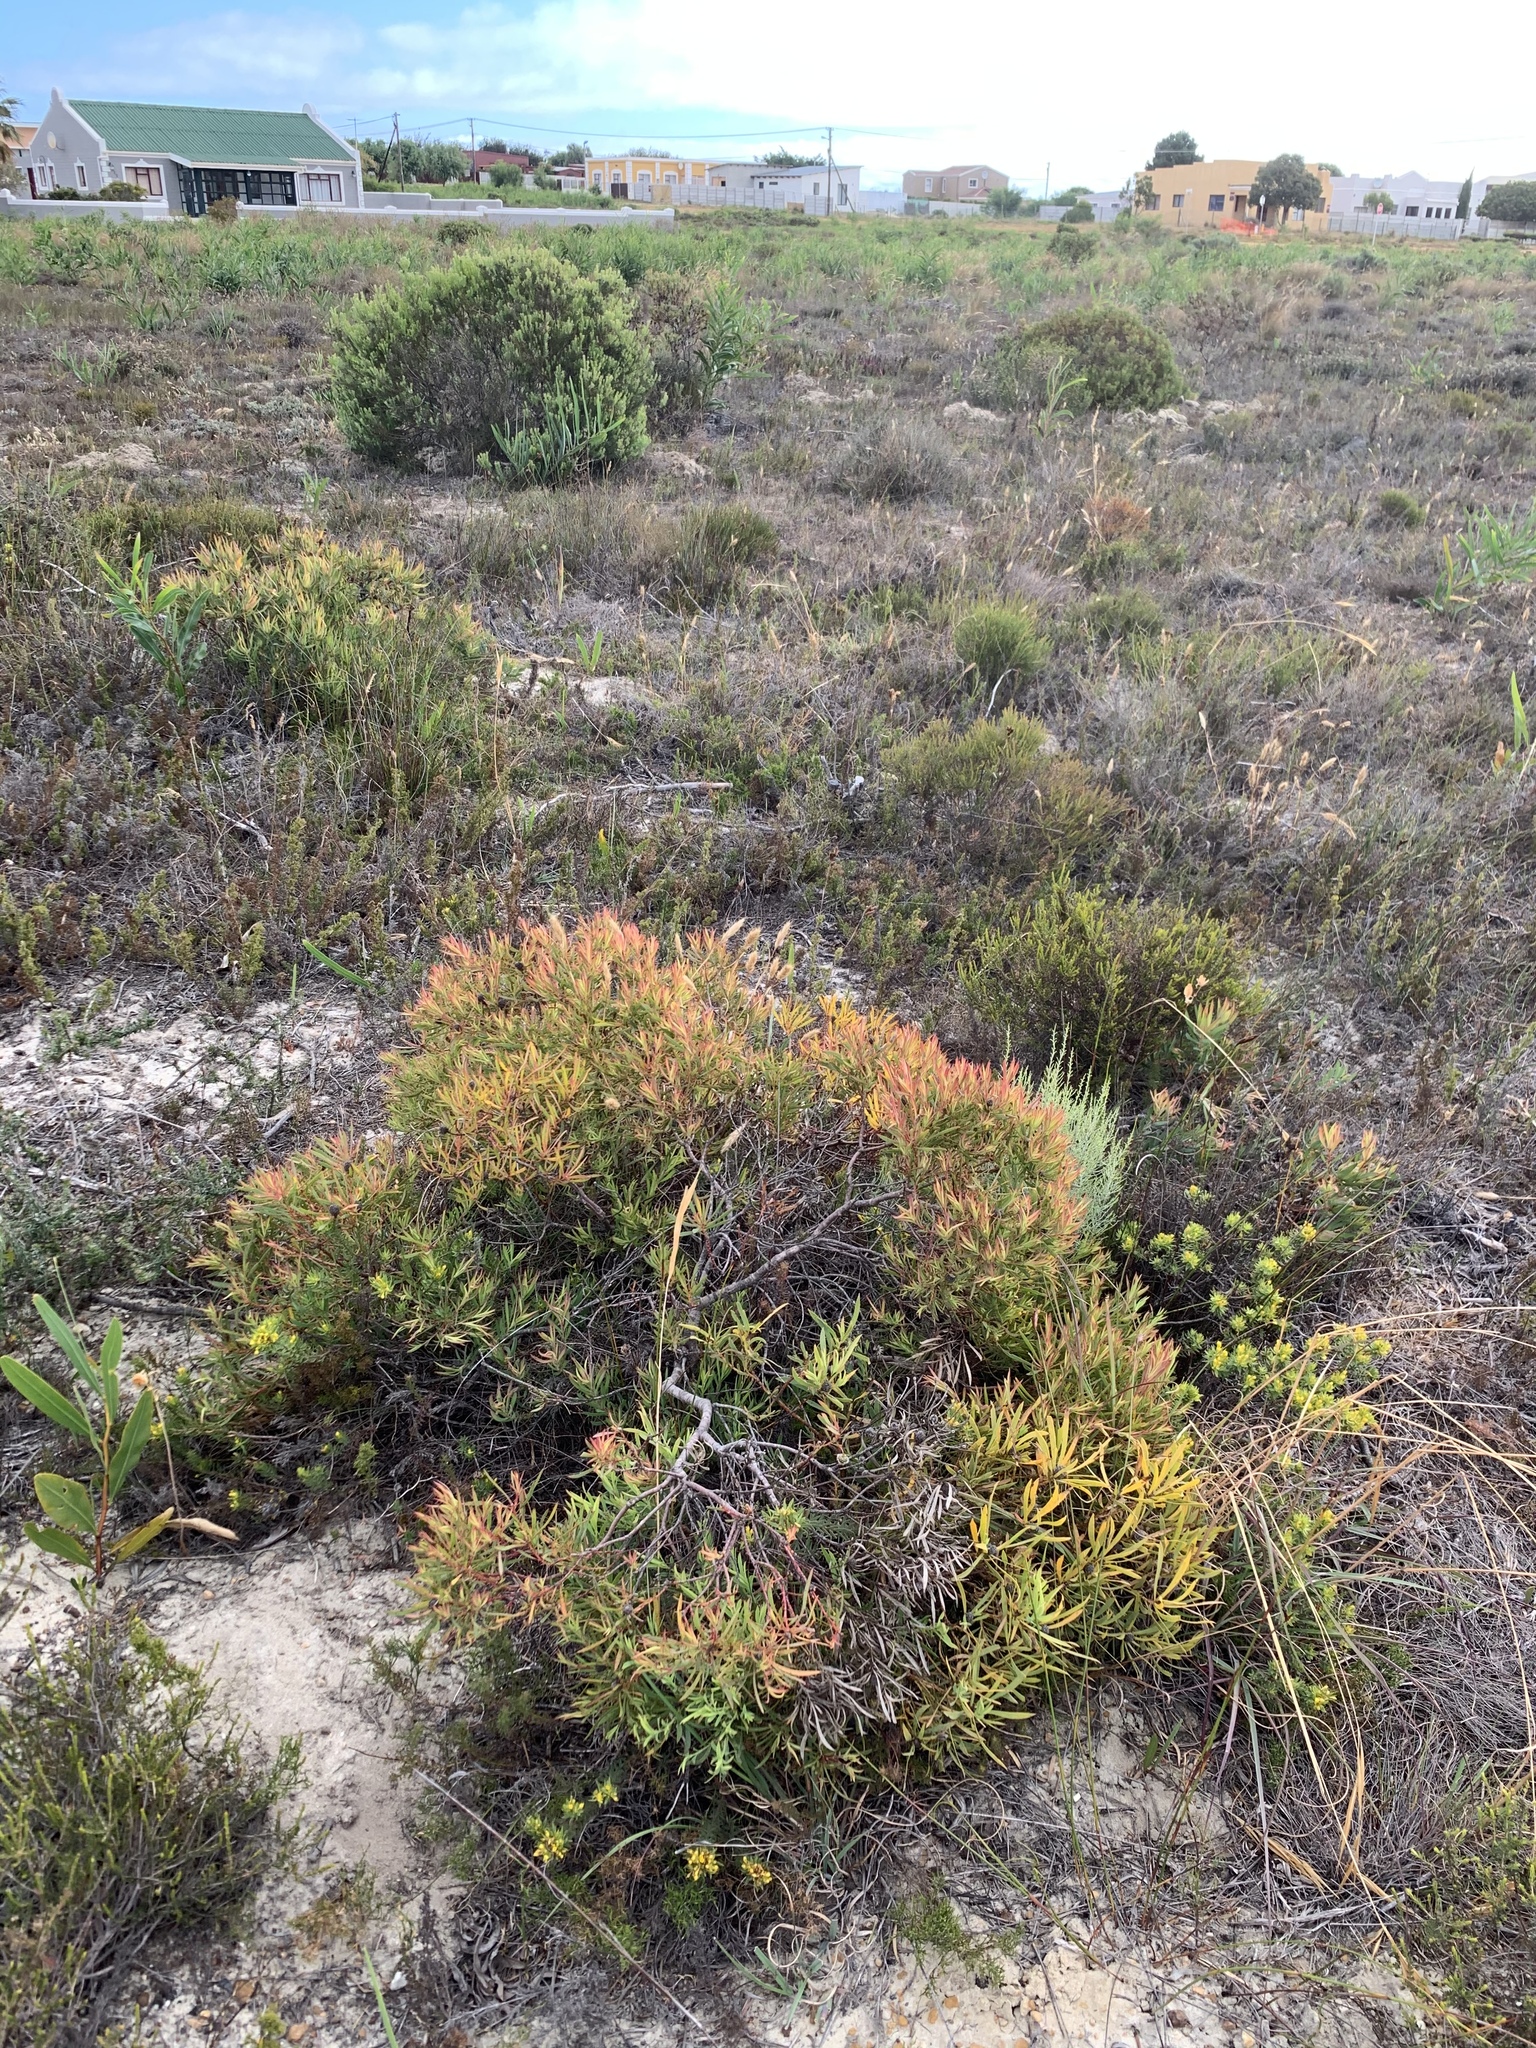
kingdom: Plantae
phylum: Tracheophyta
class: Magnoliopsida
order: Proteales
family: Proteaceae
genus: Leucadendron
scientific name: Leucadendron salignum
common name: Common sunshine conebush
